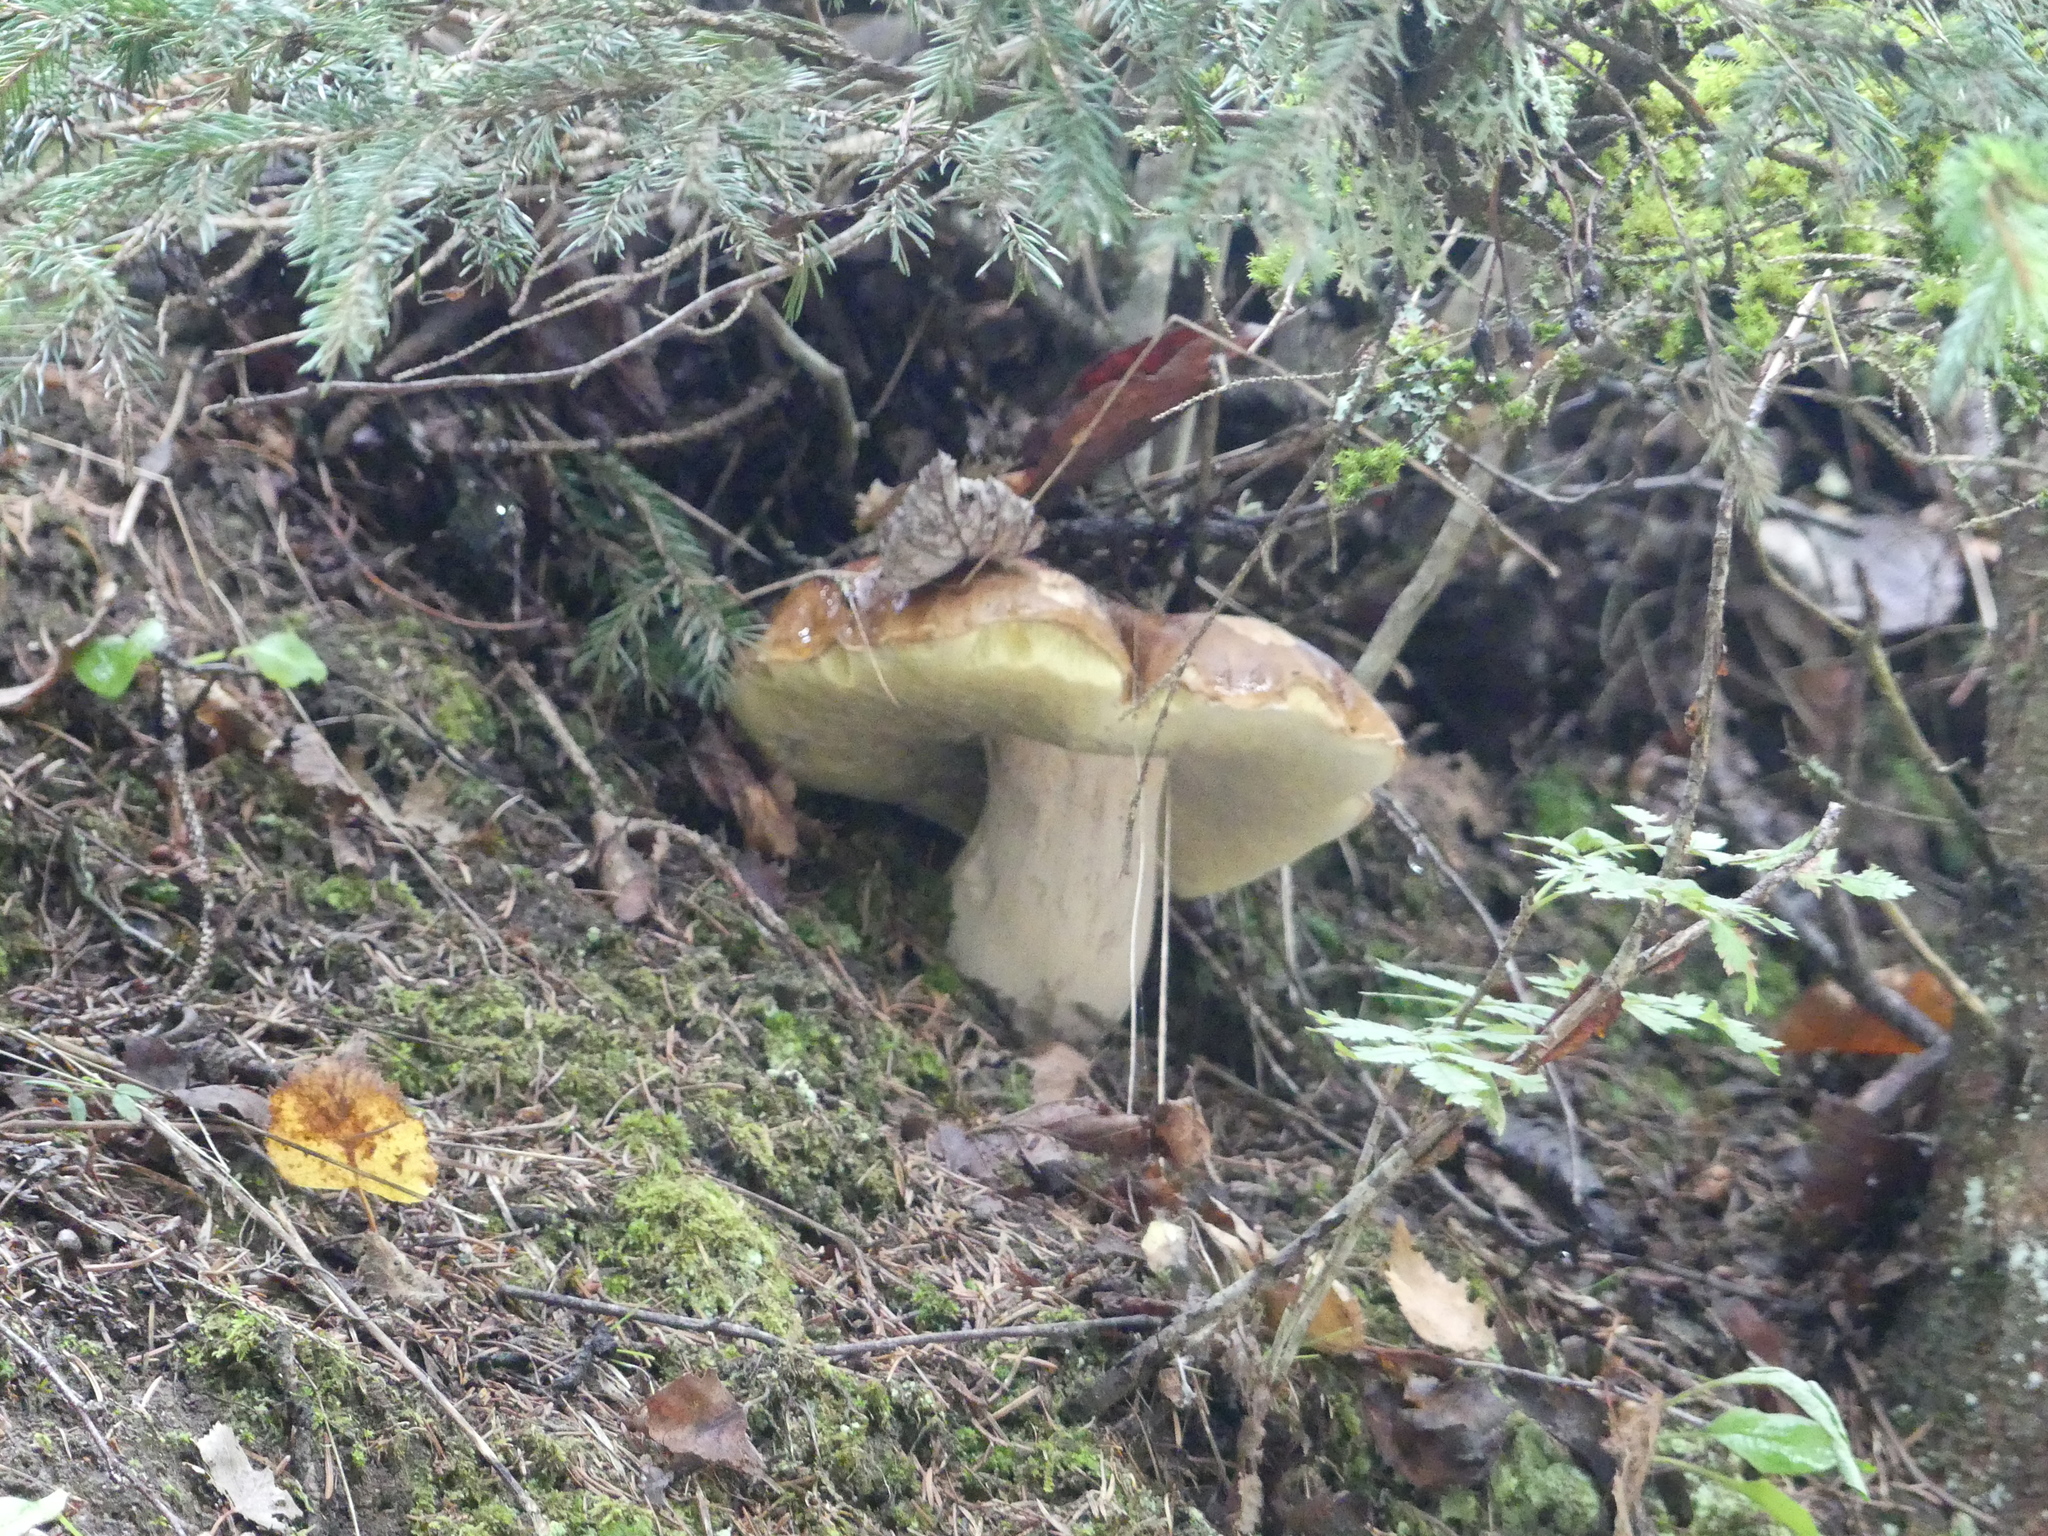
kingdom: Fungi
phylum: Basidiomycota
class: Agaricomycetes
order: Boletales
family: Boletaceae
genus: Boletus
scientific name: Boletus edulis
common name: Cep
